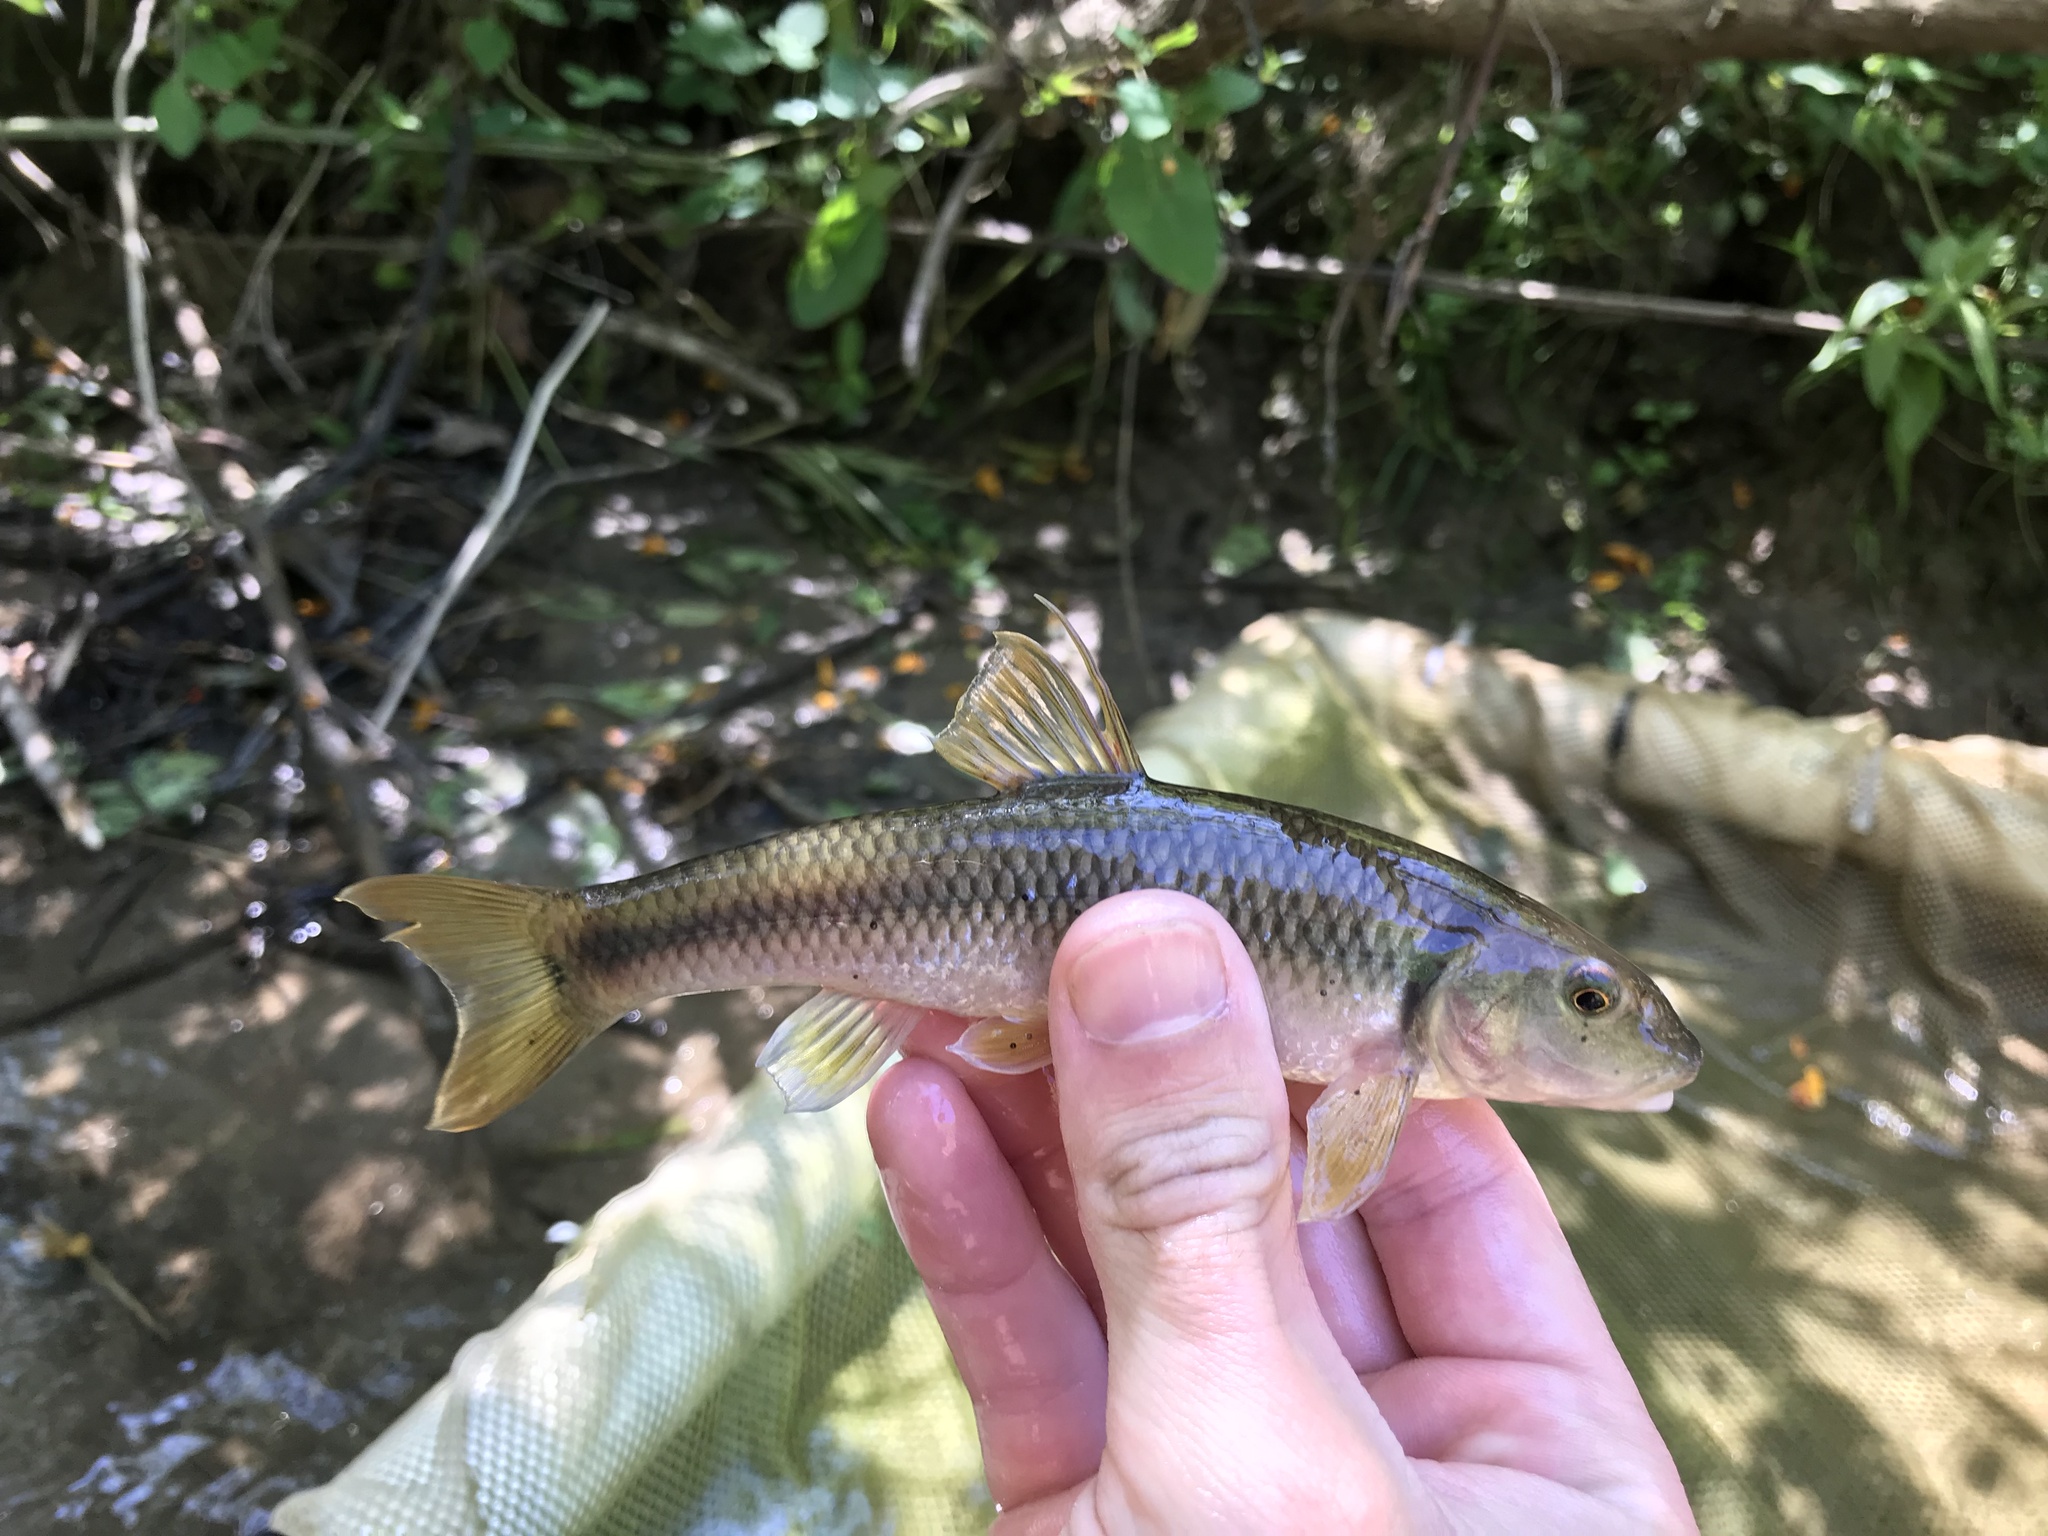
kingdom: Animalia
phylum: Chordata
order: Cypriniformes
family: Cyprinidae
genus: Nocomis
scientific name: Nocomis micropogon
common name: River chub
